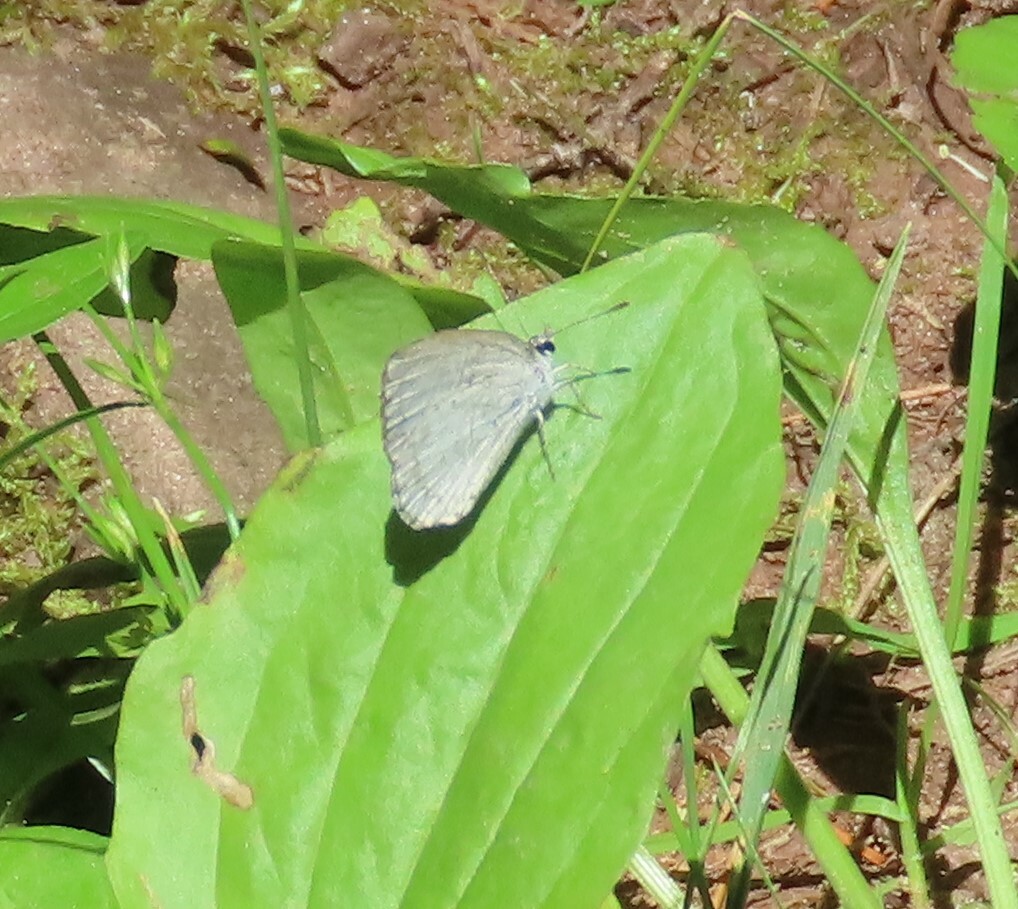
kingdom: Animalia
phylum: Arthropoda
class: Insecta
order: Lepidoptera
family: Lycaenidae
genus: Cyaniris
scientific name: Cyaniris neglecta
